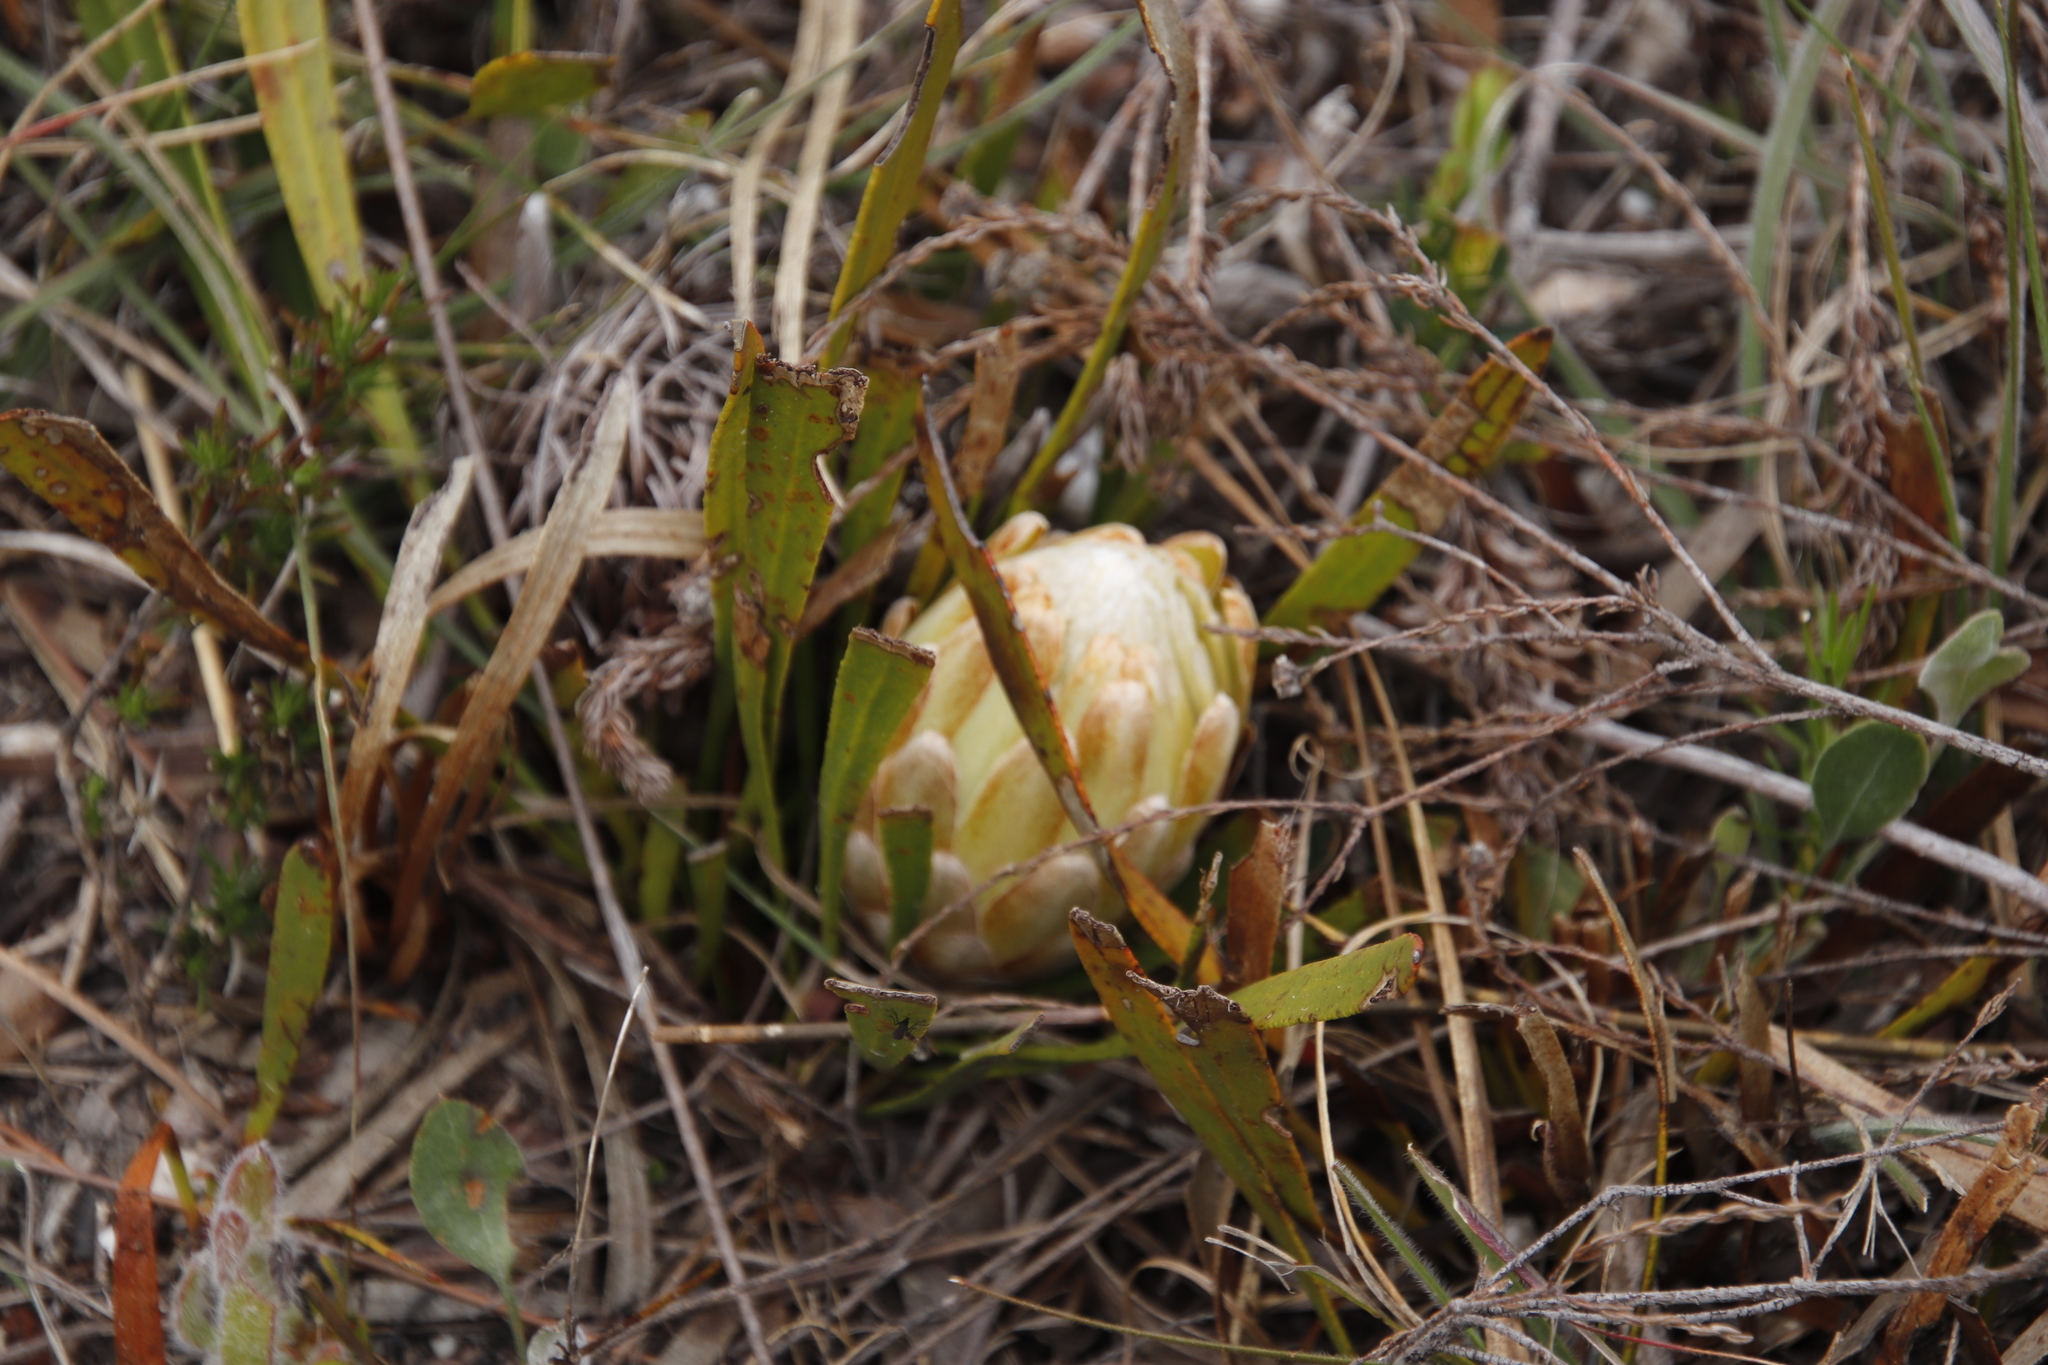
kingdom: Plantae
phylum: Tracheophyta
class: Magnoliopsida
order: Proteales
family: Proteaceae
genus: Protea
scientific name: Protea aspera
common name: Rough-leaf sugarbush
